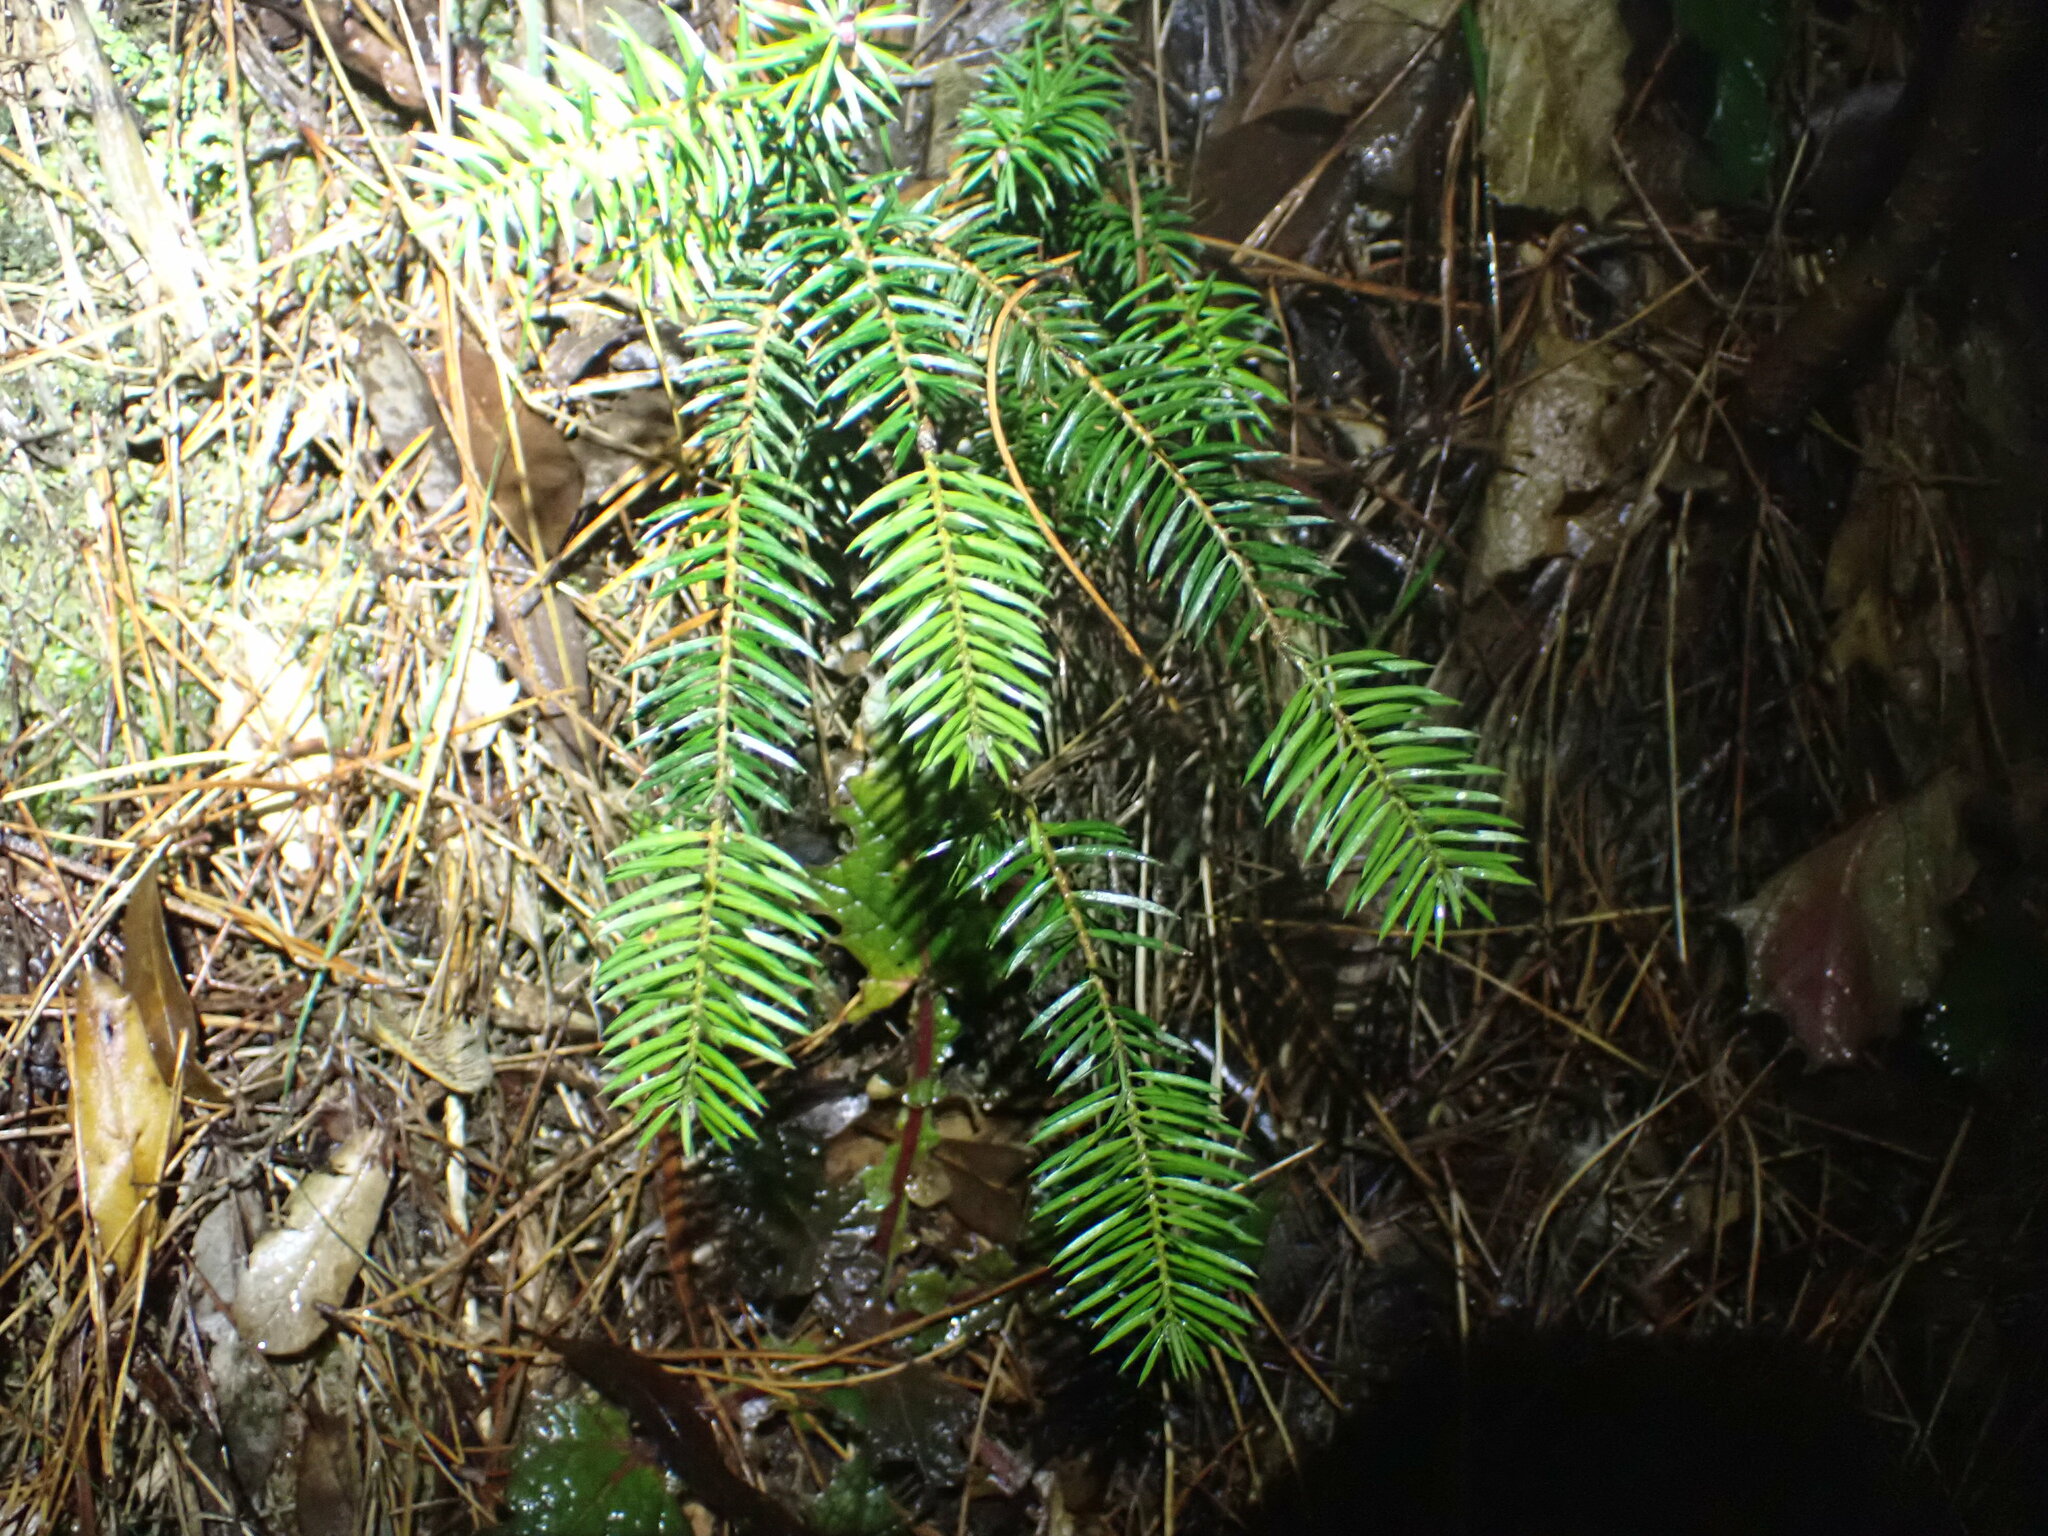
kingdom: Plantae
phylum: Tracheophyta
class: Pinopsida
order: Pinales
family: Taxaceae
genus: Taxus
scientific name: Taxus baccata
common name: Yew
